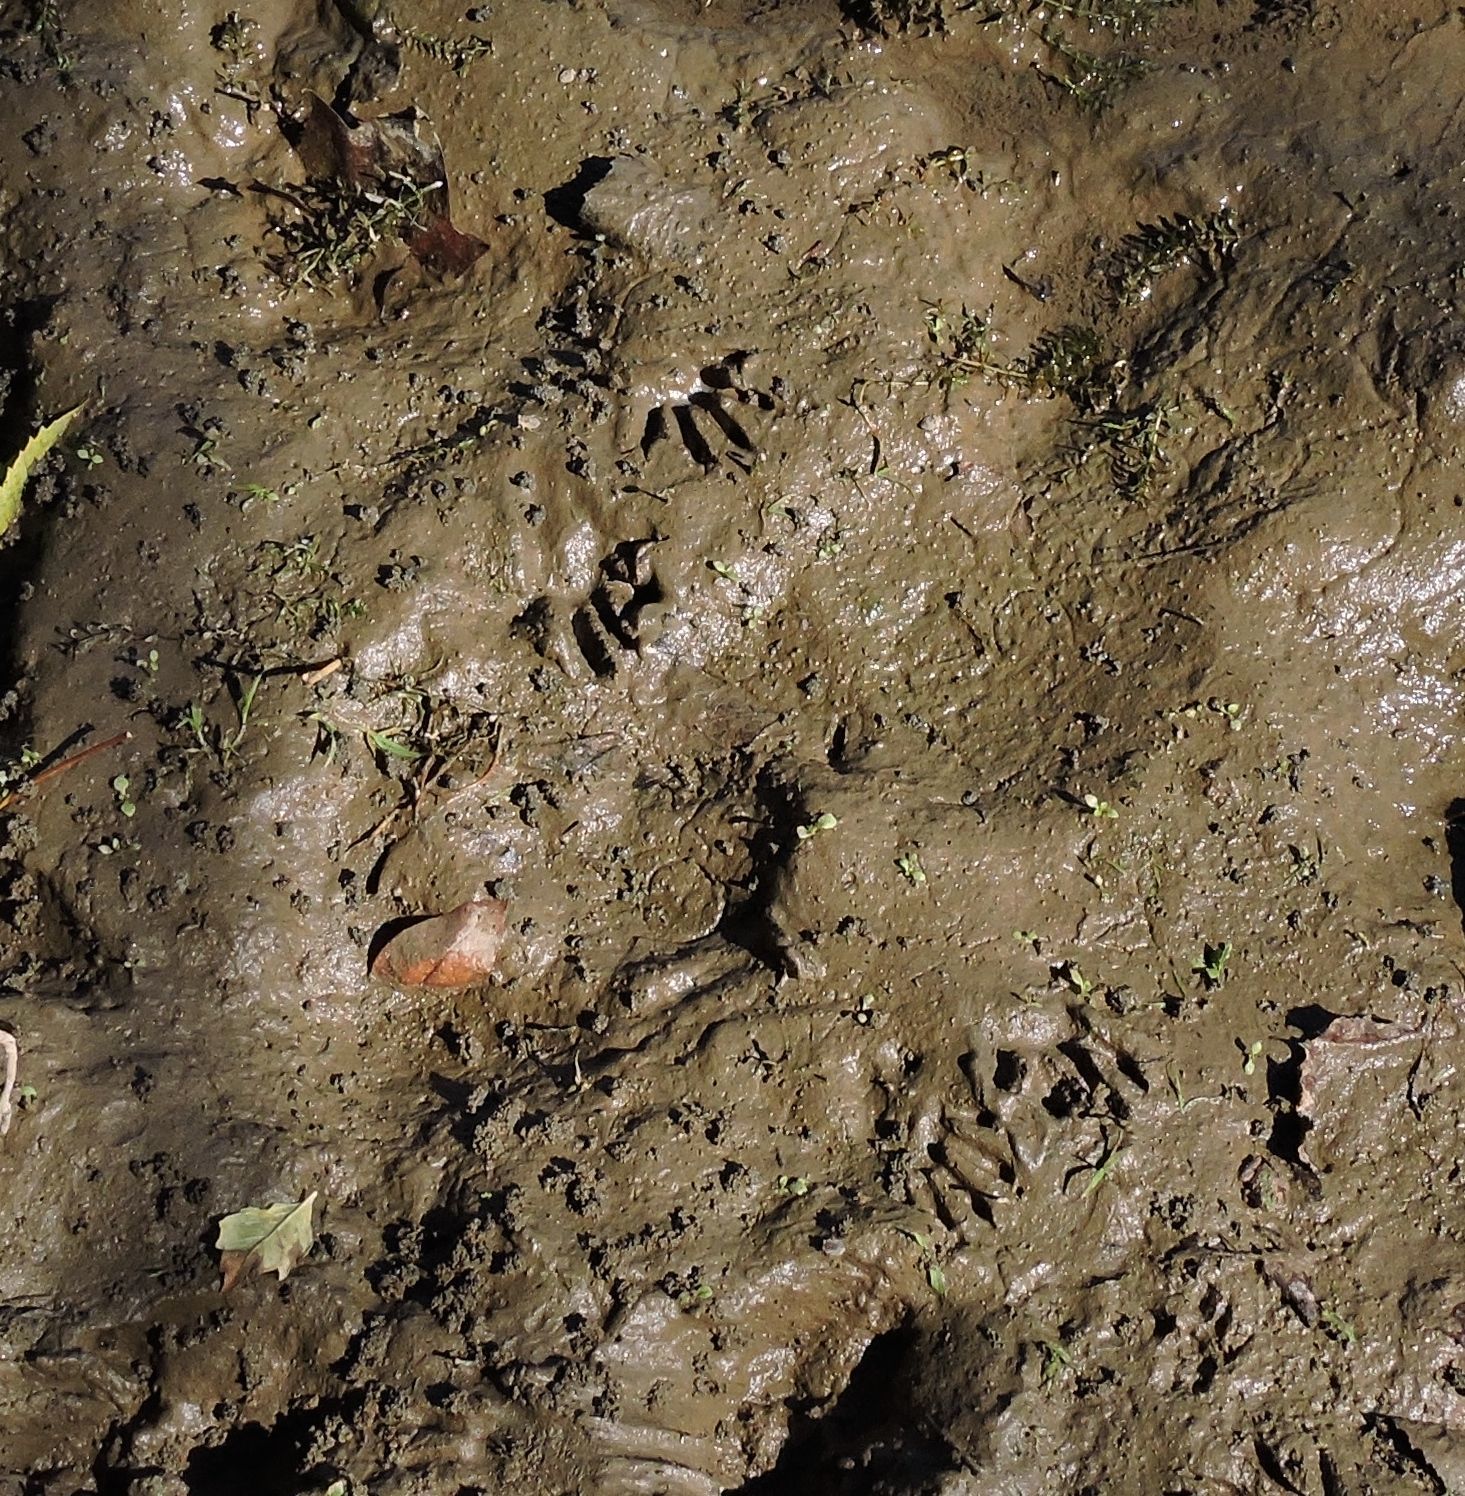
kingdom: Animalia
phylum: Chordata
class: Mammalia
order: Carnivora
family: Procyonidae
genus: Procyon
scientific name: Procyon lotor
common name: Raccoon
